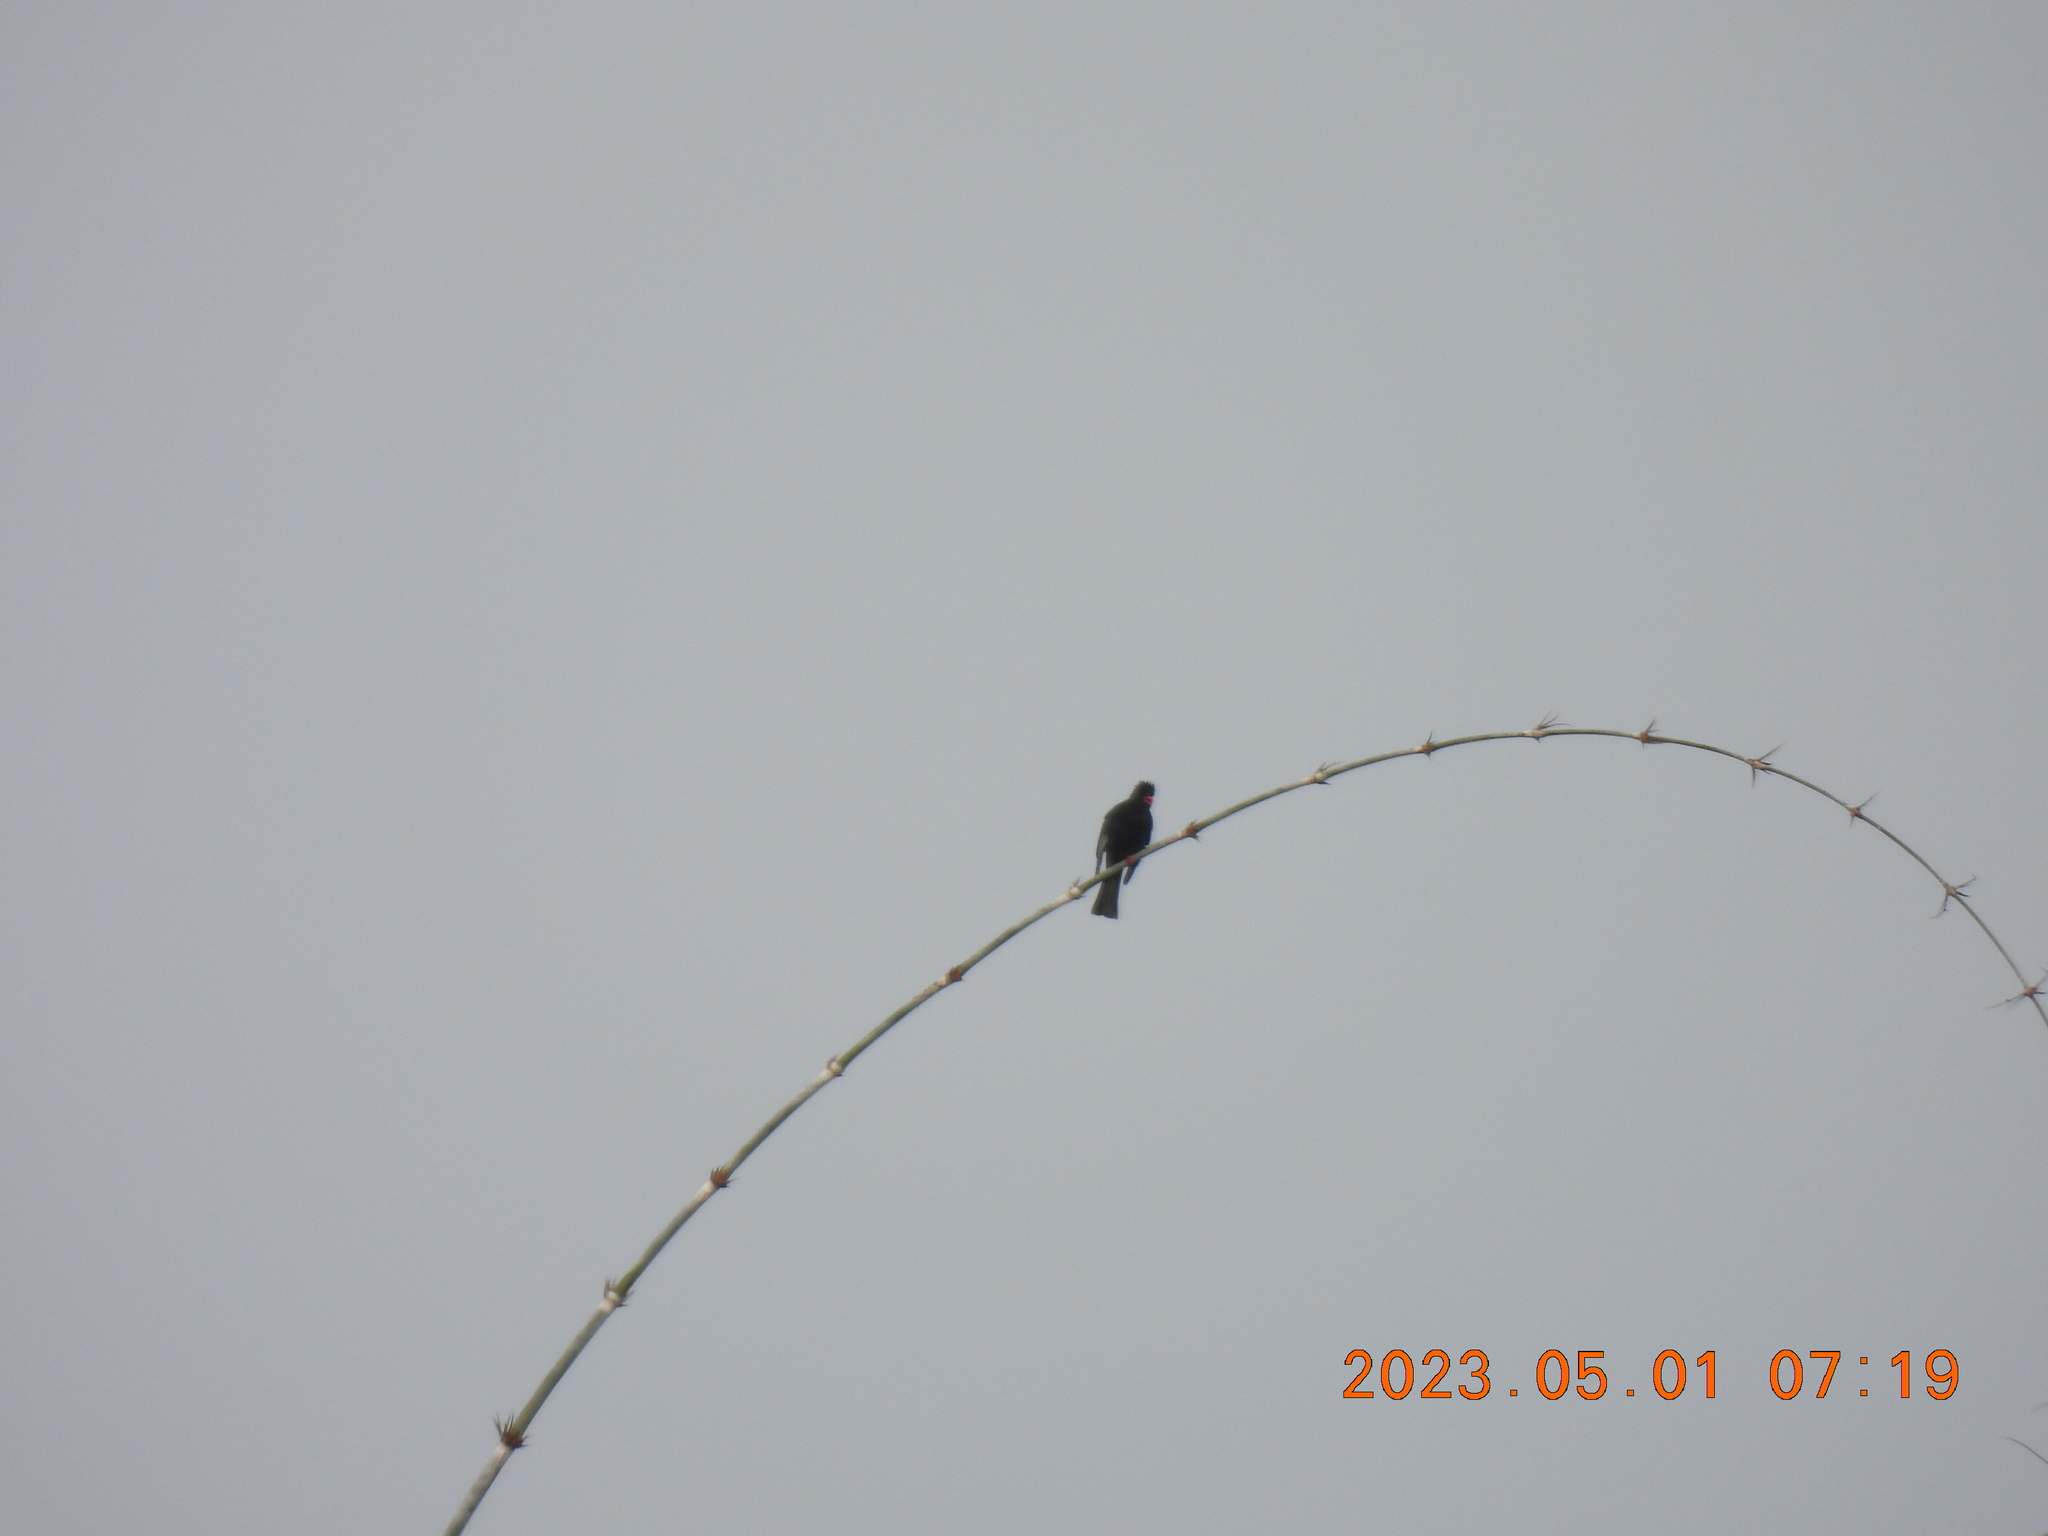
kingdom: Animalia
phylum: Chordata
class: Aves
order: Passeriformes
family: Pycnonotidae
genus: Hypsipetes
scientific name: Hypsipetes leucocephalus
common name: Black bulbul
